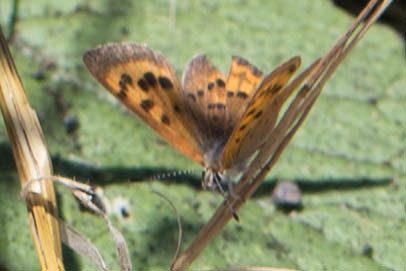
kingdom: Animalia
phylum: Arthropoda
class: Insecta
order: Lepidoptera
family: Lycaenidae
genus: Tharsalea
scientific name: Tharsalea helloides
